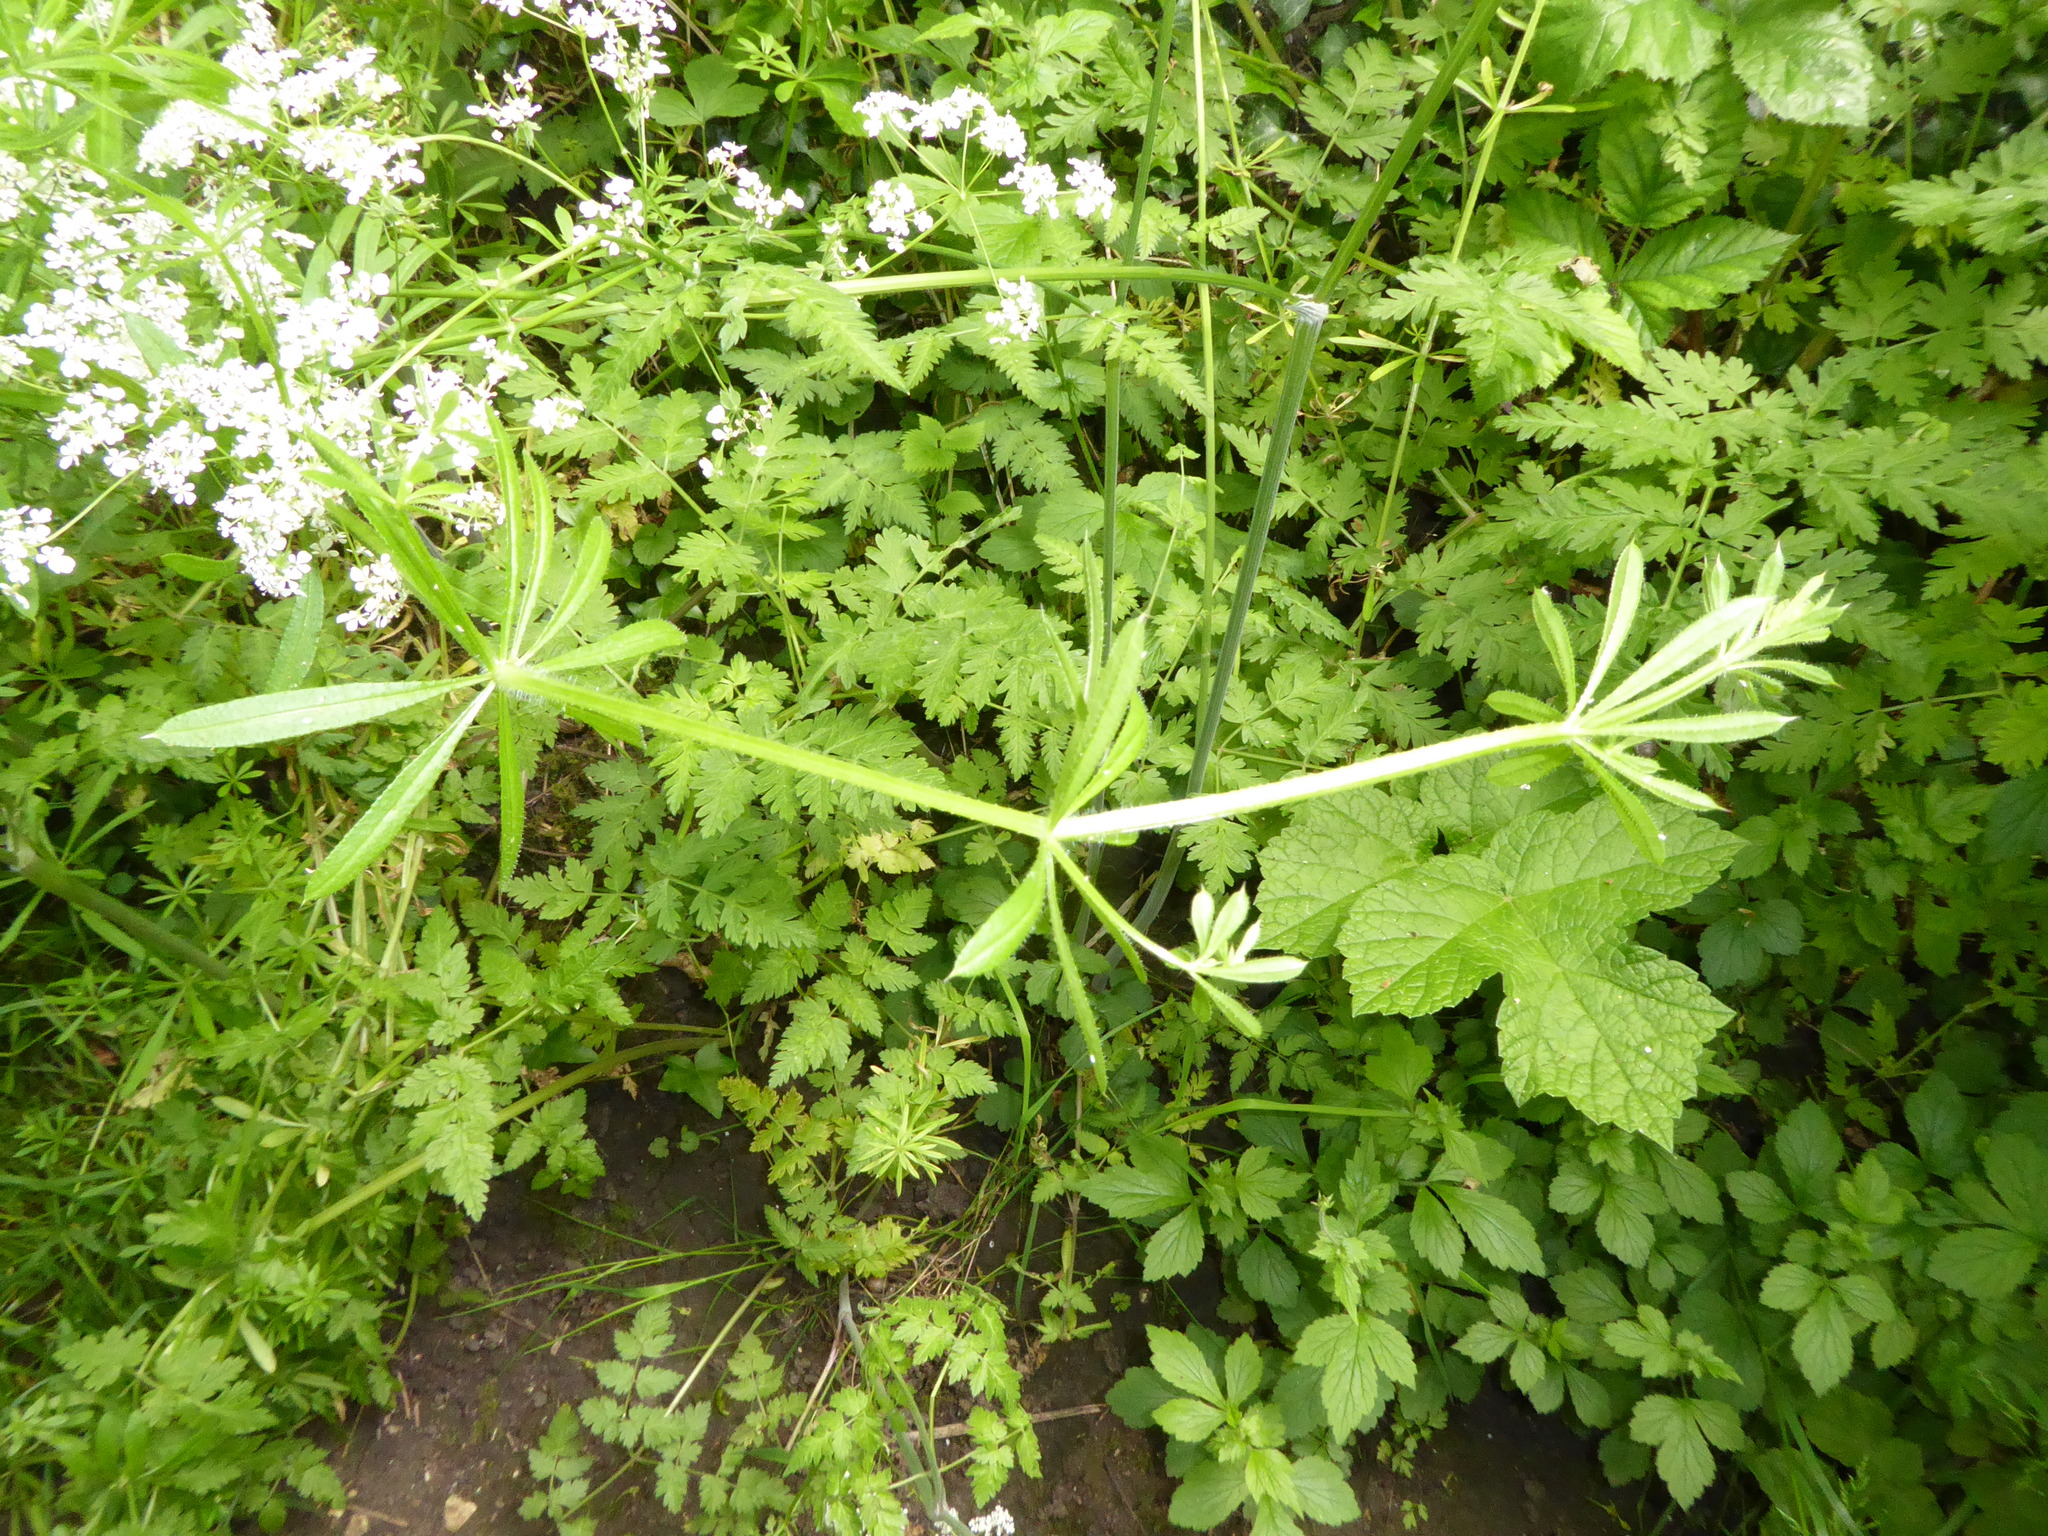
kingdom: Plantae
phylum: Tracheophyta
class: Magnoliopsida
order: Gentianales
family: Rubiaceae
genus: Galium
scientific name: Galium aparine
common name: Cleavers
